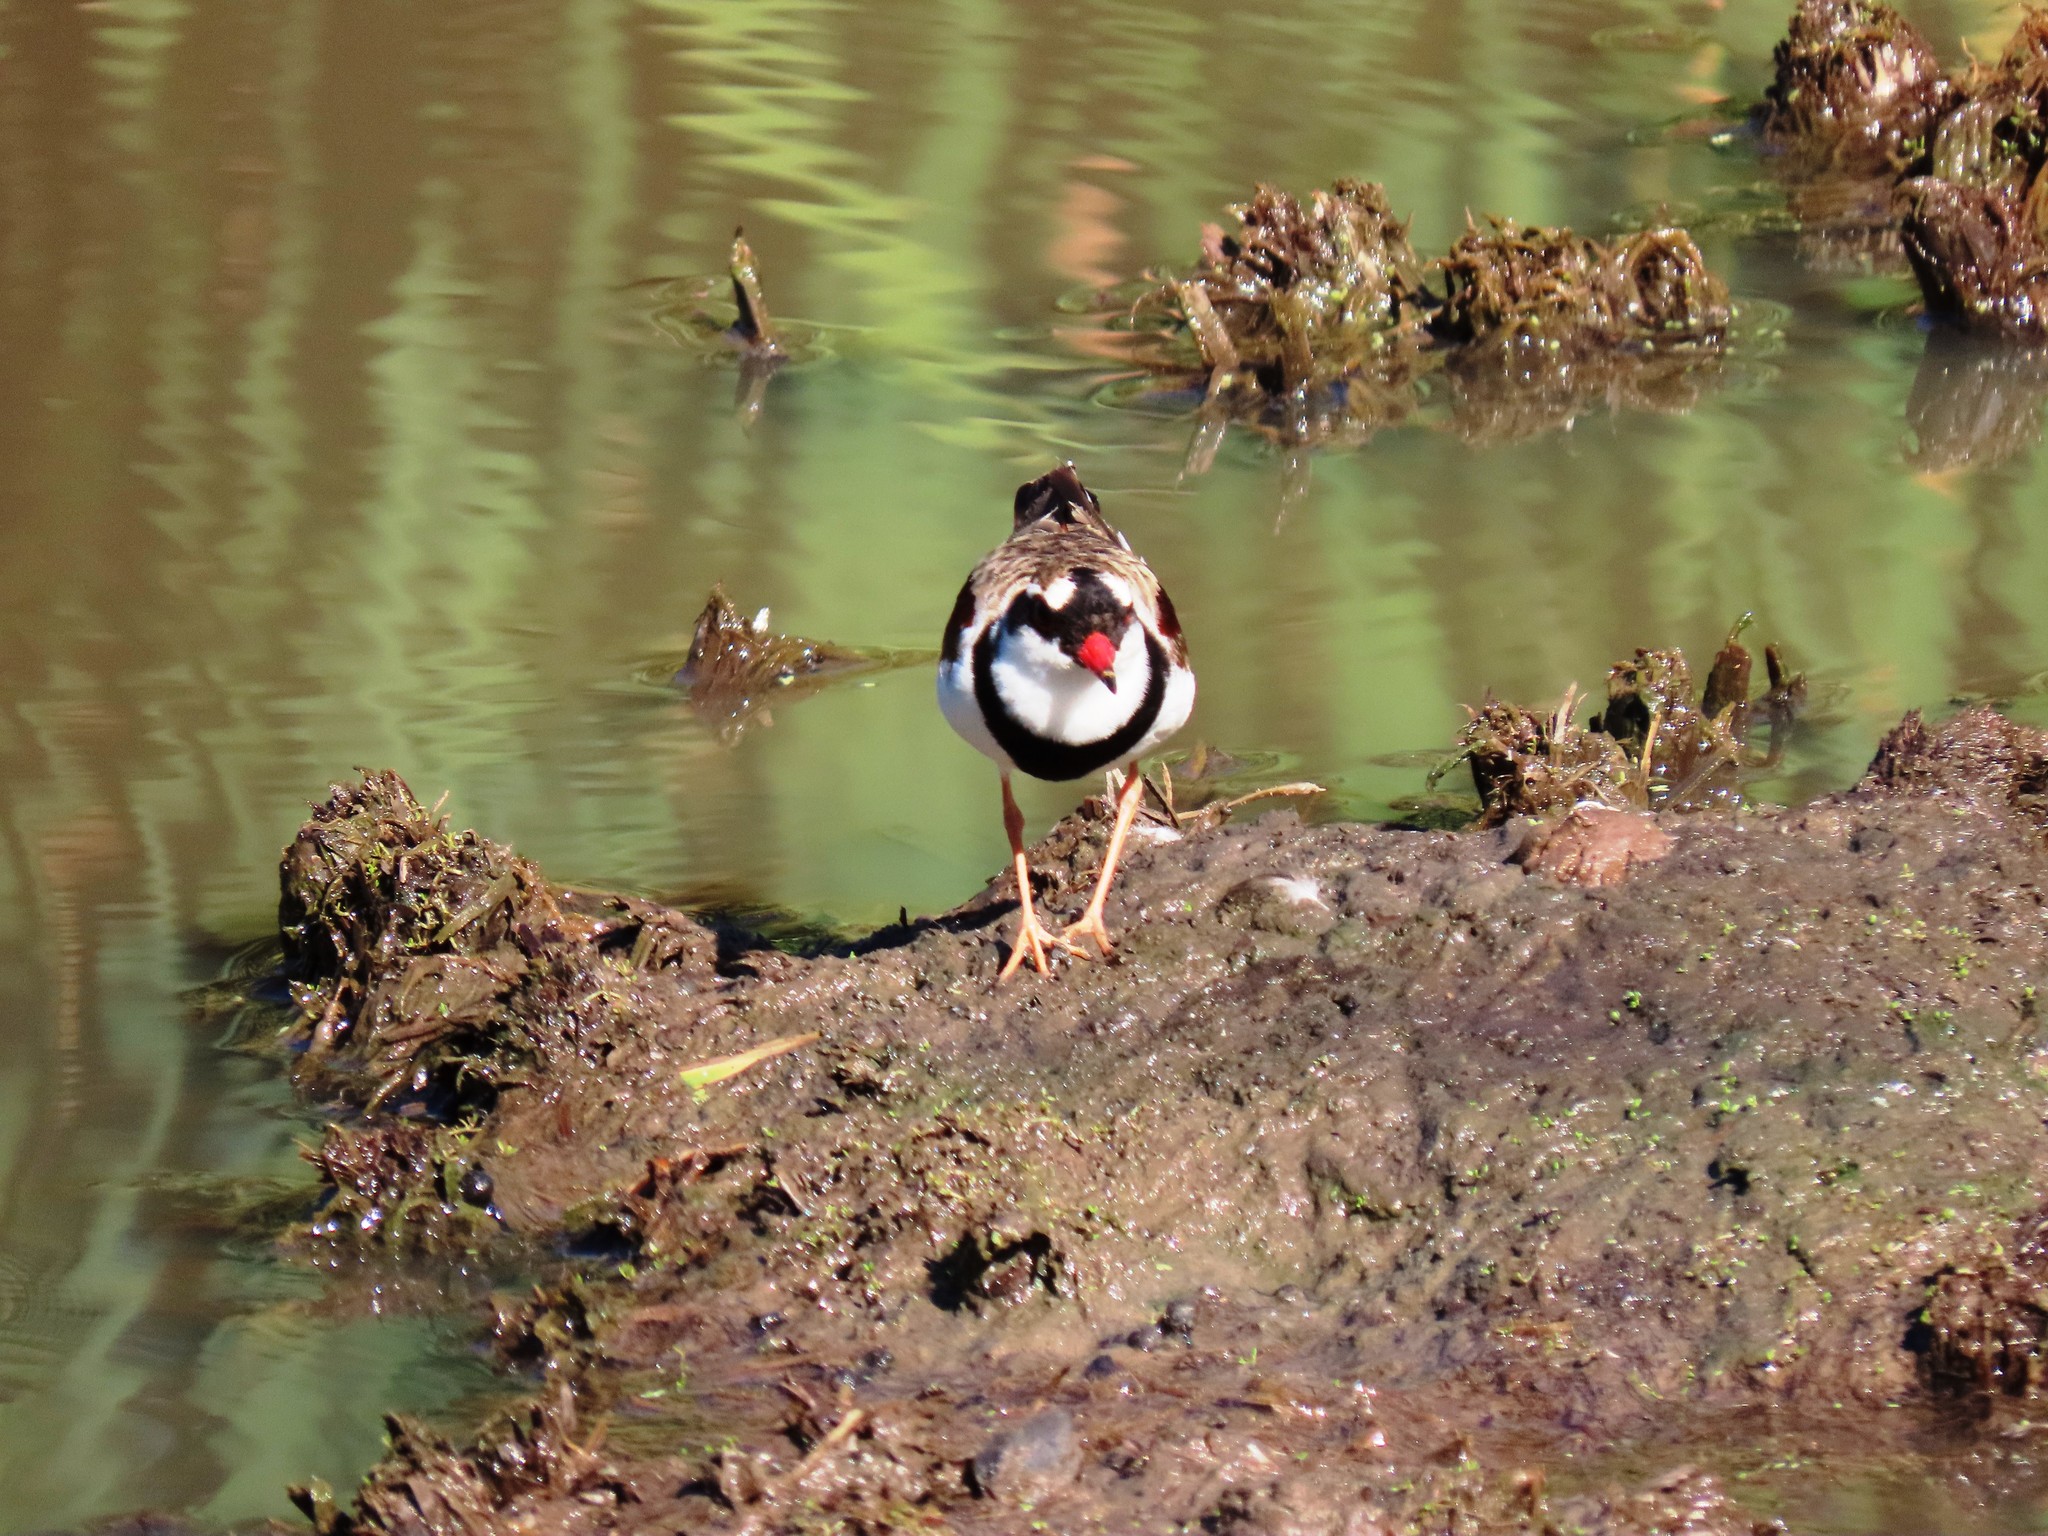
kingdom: Animalia
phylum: Chordata
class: Aves
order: Charadriiformes
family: Charadriidae
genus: Elseyornis
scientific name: Elseyornis melanops
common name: Black-fronted dotterel
